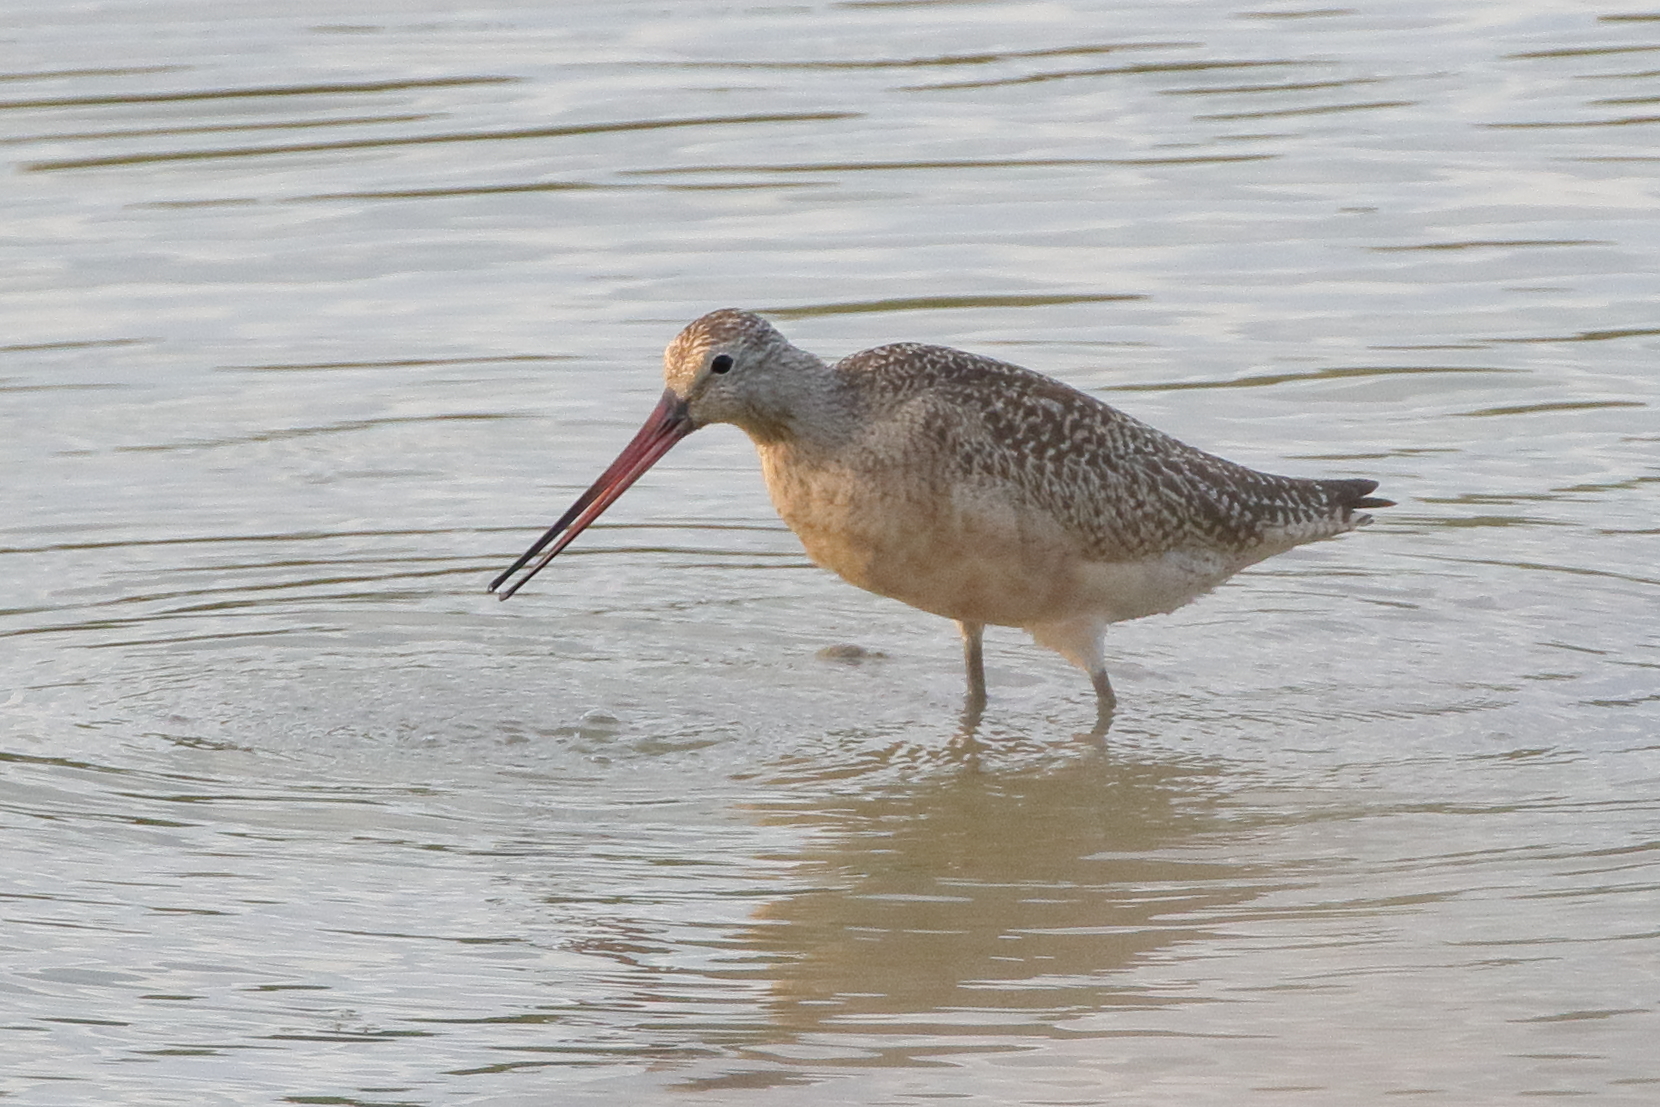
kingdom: Animalia
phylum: Chordata
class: Aves
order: Charadriiformes
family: Scolopacidae
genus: Limosa
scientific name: Limosa fedoa
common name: Marbled godwit
